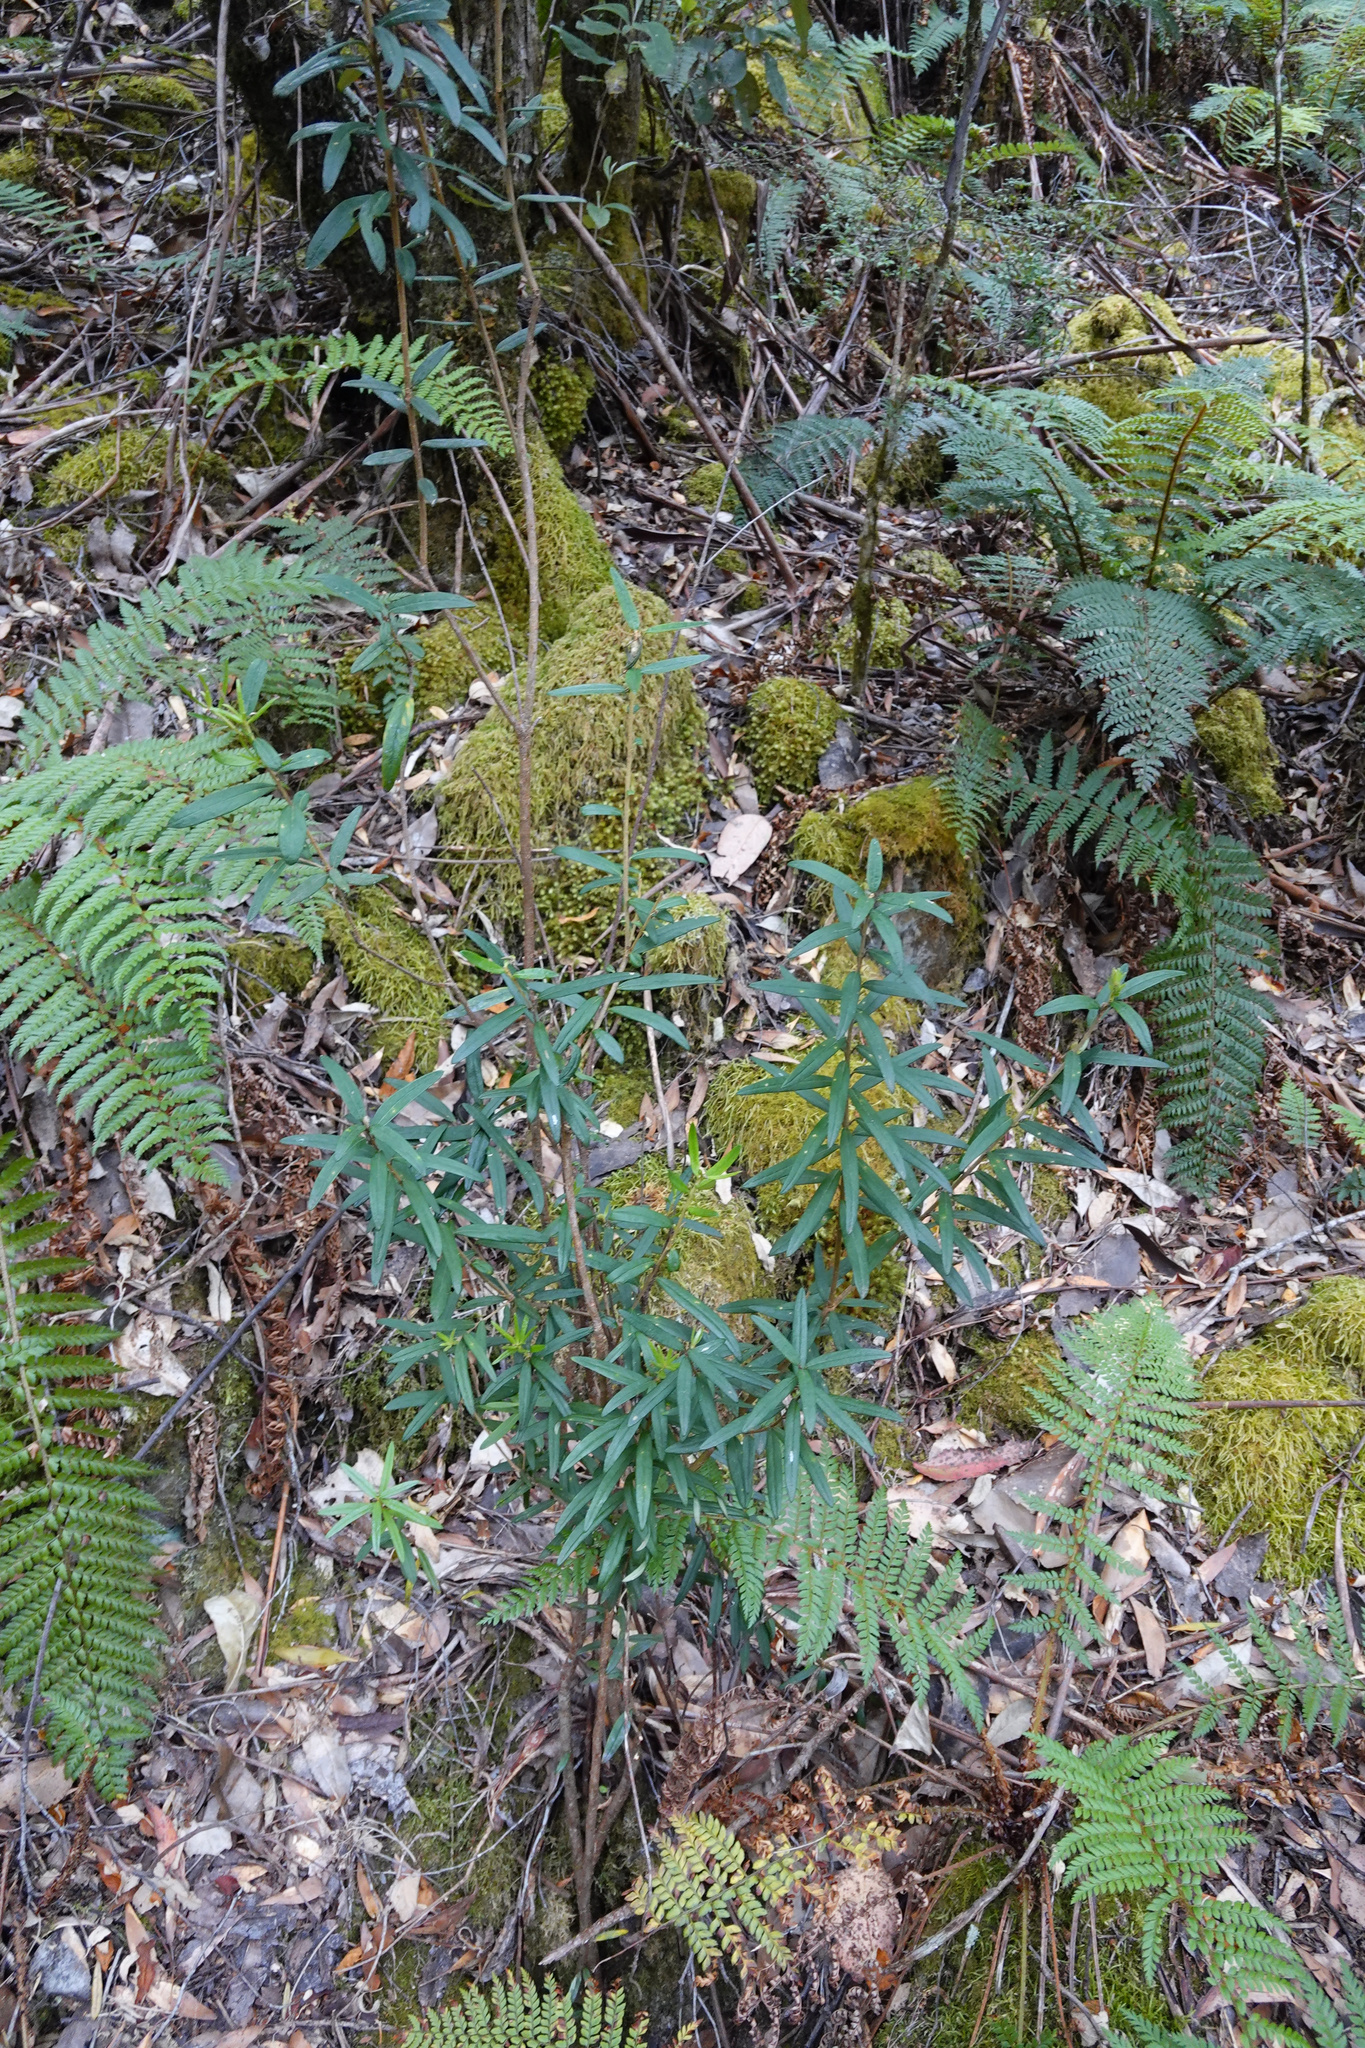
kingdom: Plantae
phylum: Tracheophyta
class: Magnoliopsida
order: Apiales
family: Pittosporaceae
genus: Pittosporum
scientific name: Pittosporum bicolor
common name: Tallowwood
